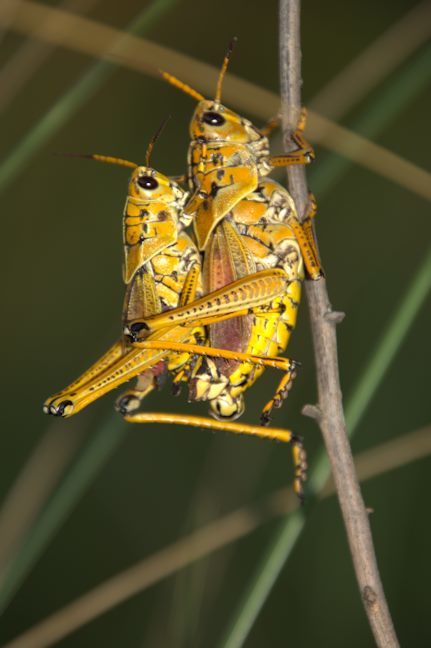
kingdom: Animalia
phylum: Arthropoda
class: Insecta
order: Orthoptera
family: Romaleidae
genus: Romalea
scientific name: Romalea microptera
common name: Eastern lubber grasshopper
